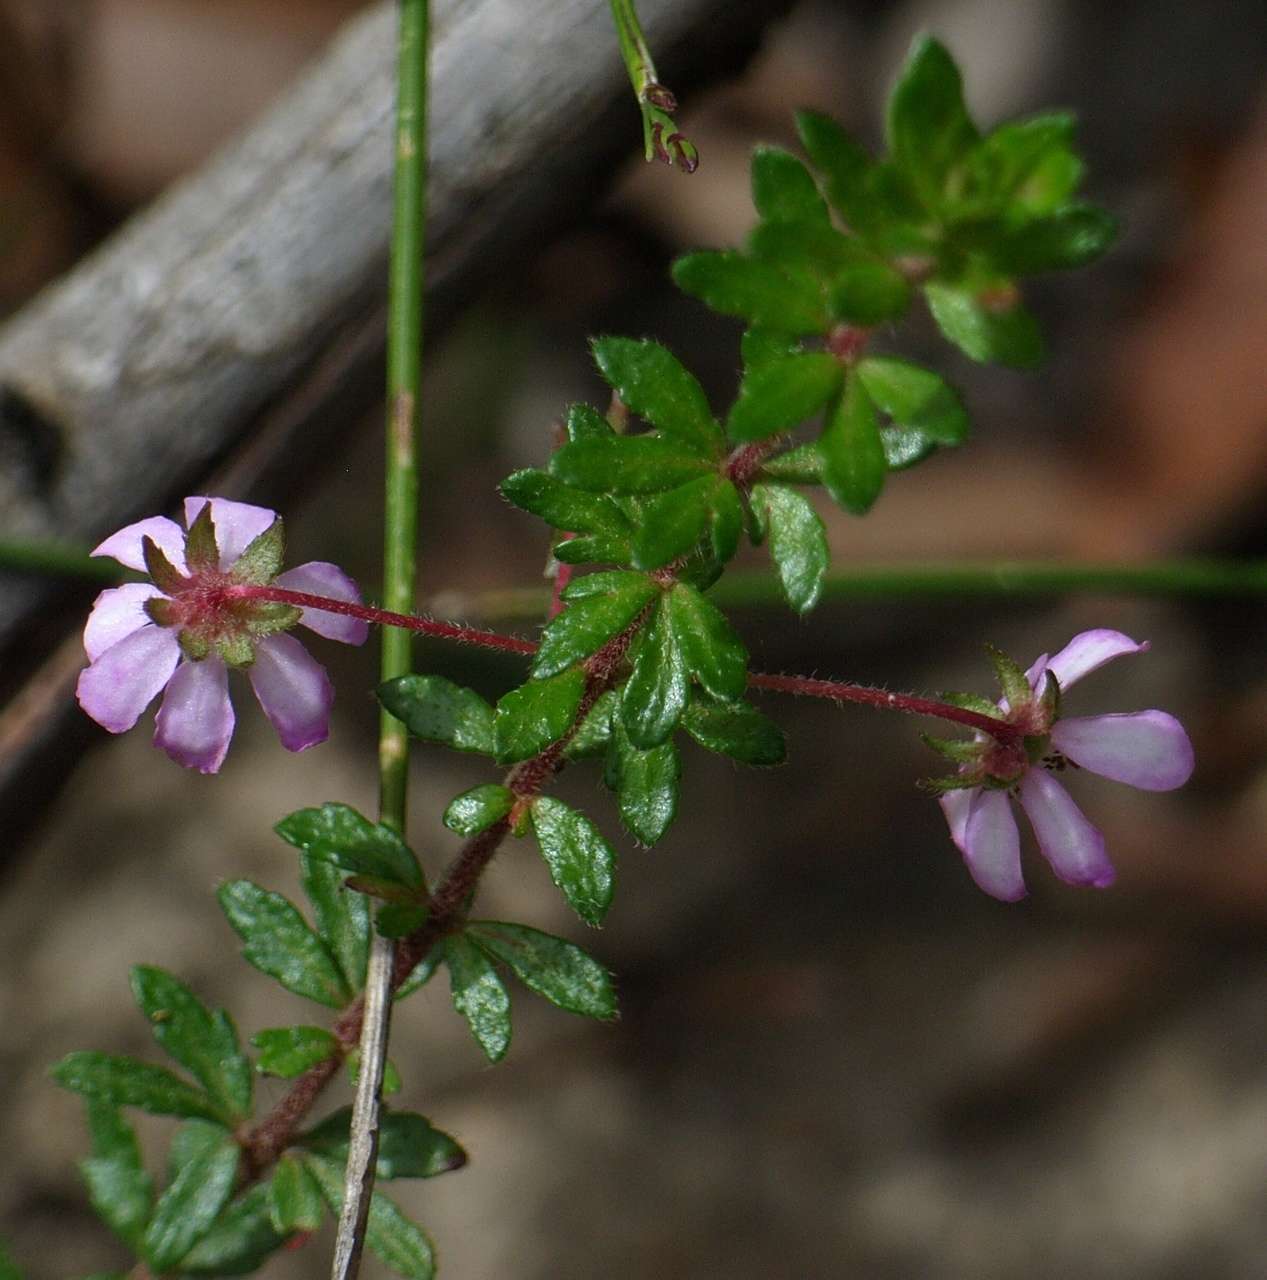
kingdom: Plantae
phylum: Tracheophyta
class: Magnoliopsida
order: Oxalidales
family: Cunoniaceae
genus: Bauera
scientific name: Bauera rubioides
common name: River-rose
